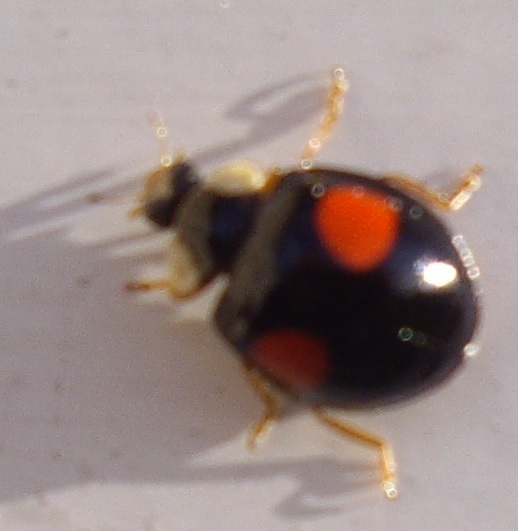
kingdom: Animalia
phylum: Arthropoda
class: Insecta
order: Coleoptera
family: Coccinellidae
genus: Harmonia
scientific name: Harmonia axyridis
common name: Harlequin ladybird
